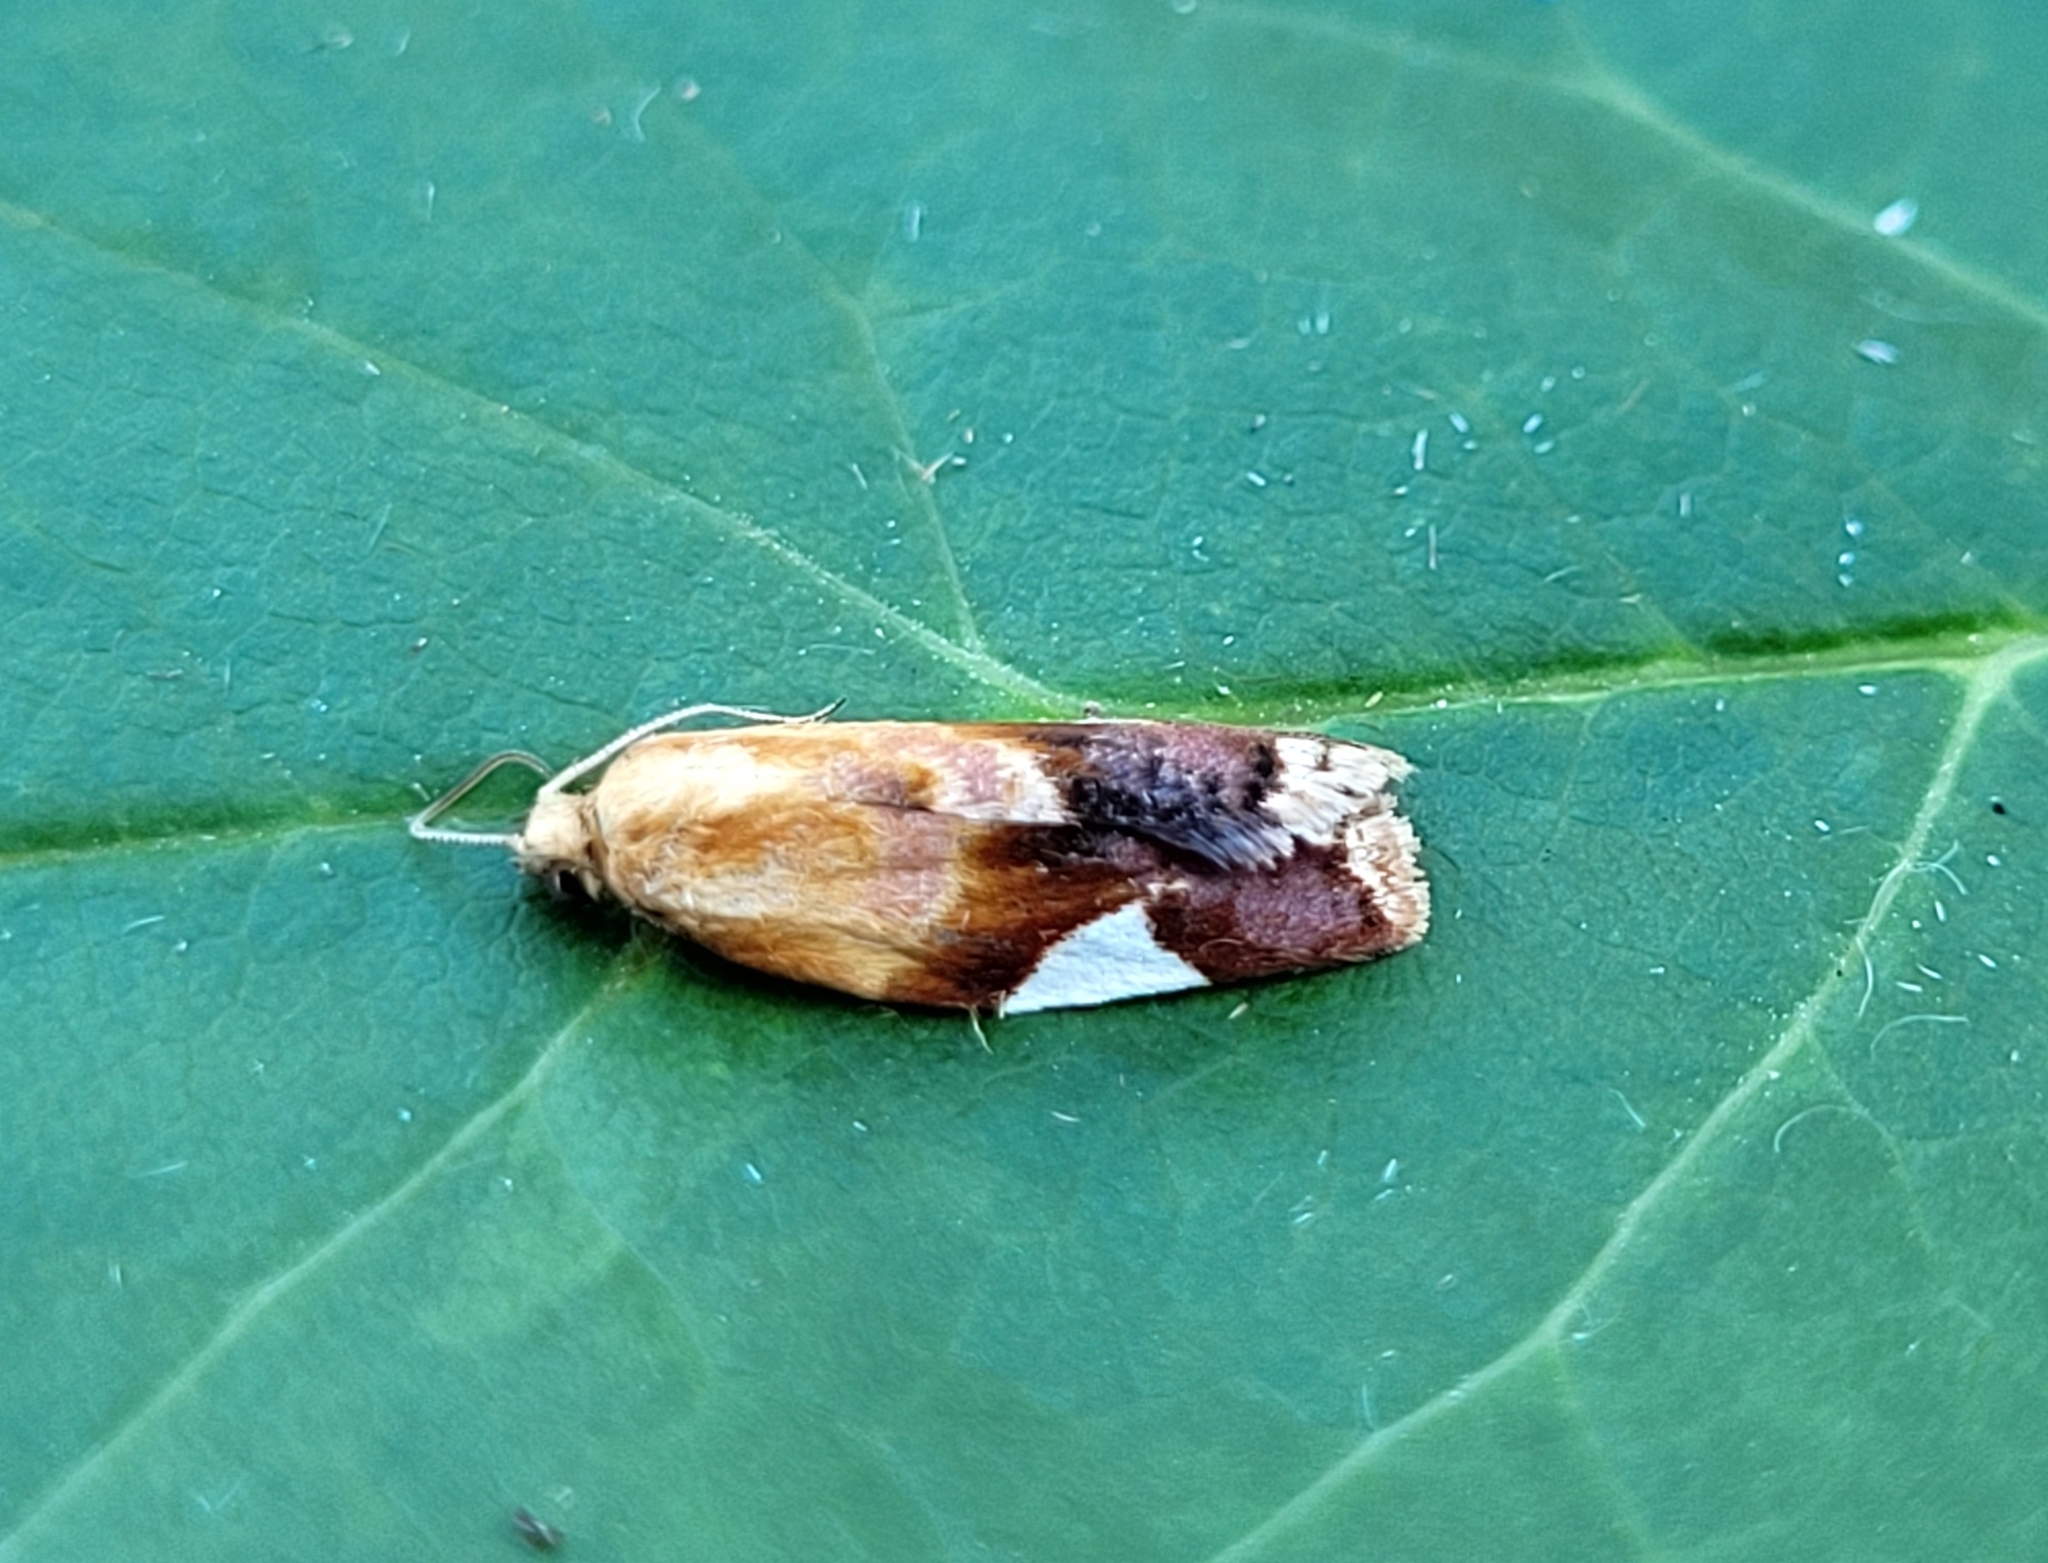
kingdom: Animalia
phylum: Arthropoda
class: Insecta
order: Lepidoptera
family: Tortricidae
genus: Clepsis
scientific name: Clepsis persicana
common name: White triangle tortrix
